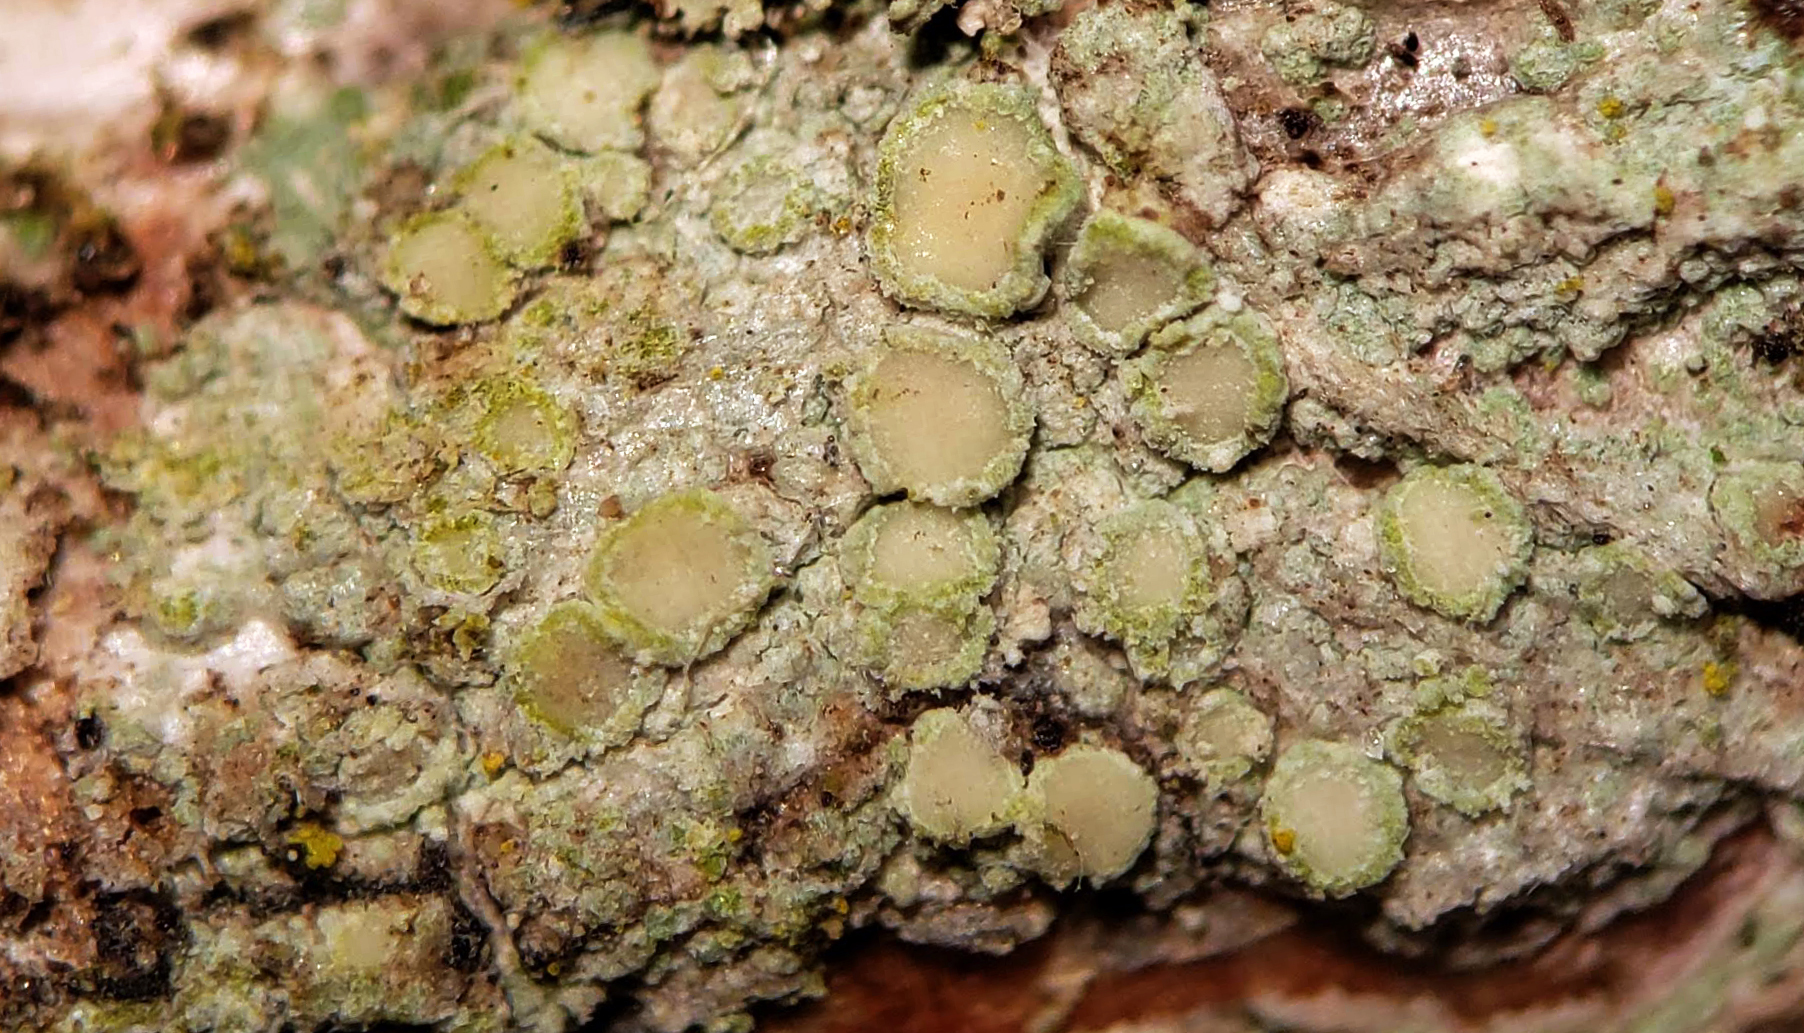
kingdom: Fungi
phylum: Ascomycota
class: Lecanoromycetes
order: Lecanorales
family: Lecanoraceae
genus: Lecanora
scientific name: Lecanora strobilina
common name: Mealy rim-lichen
